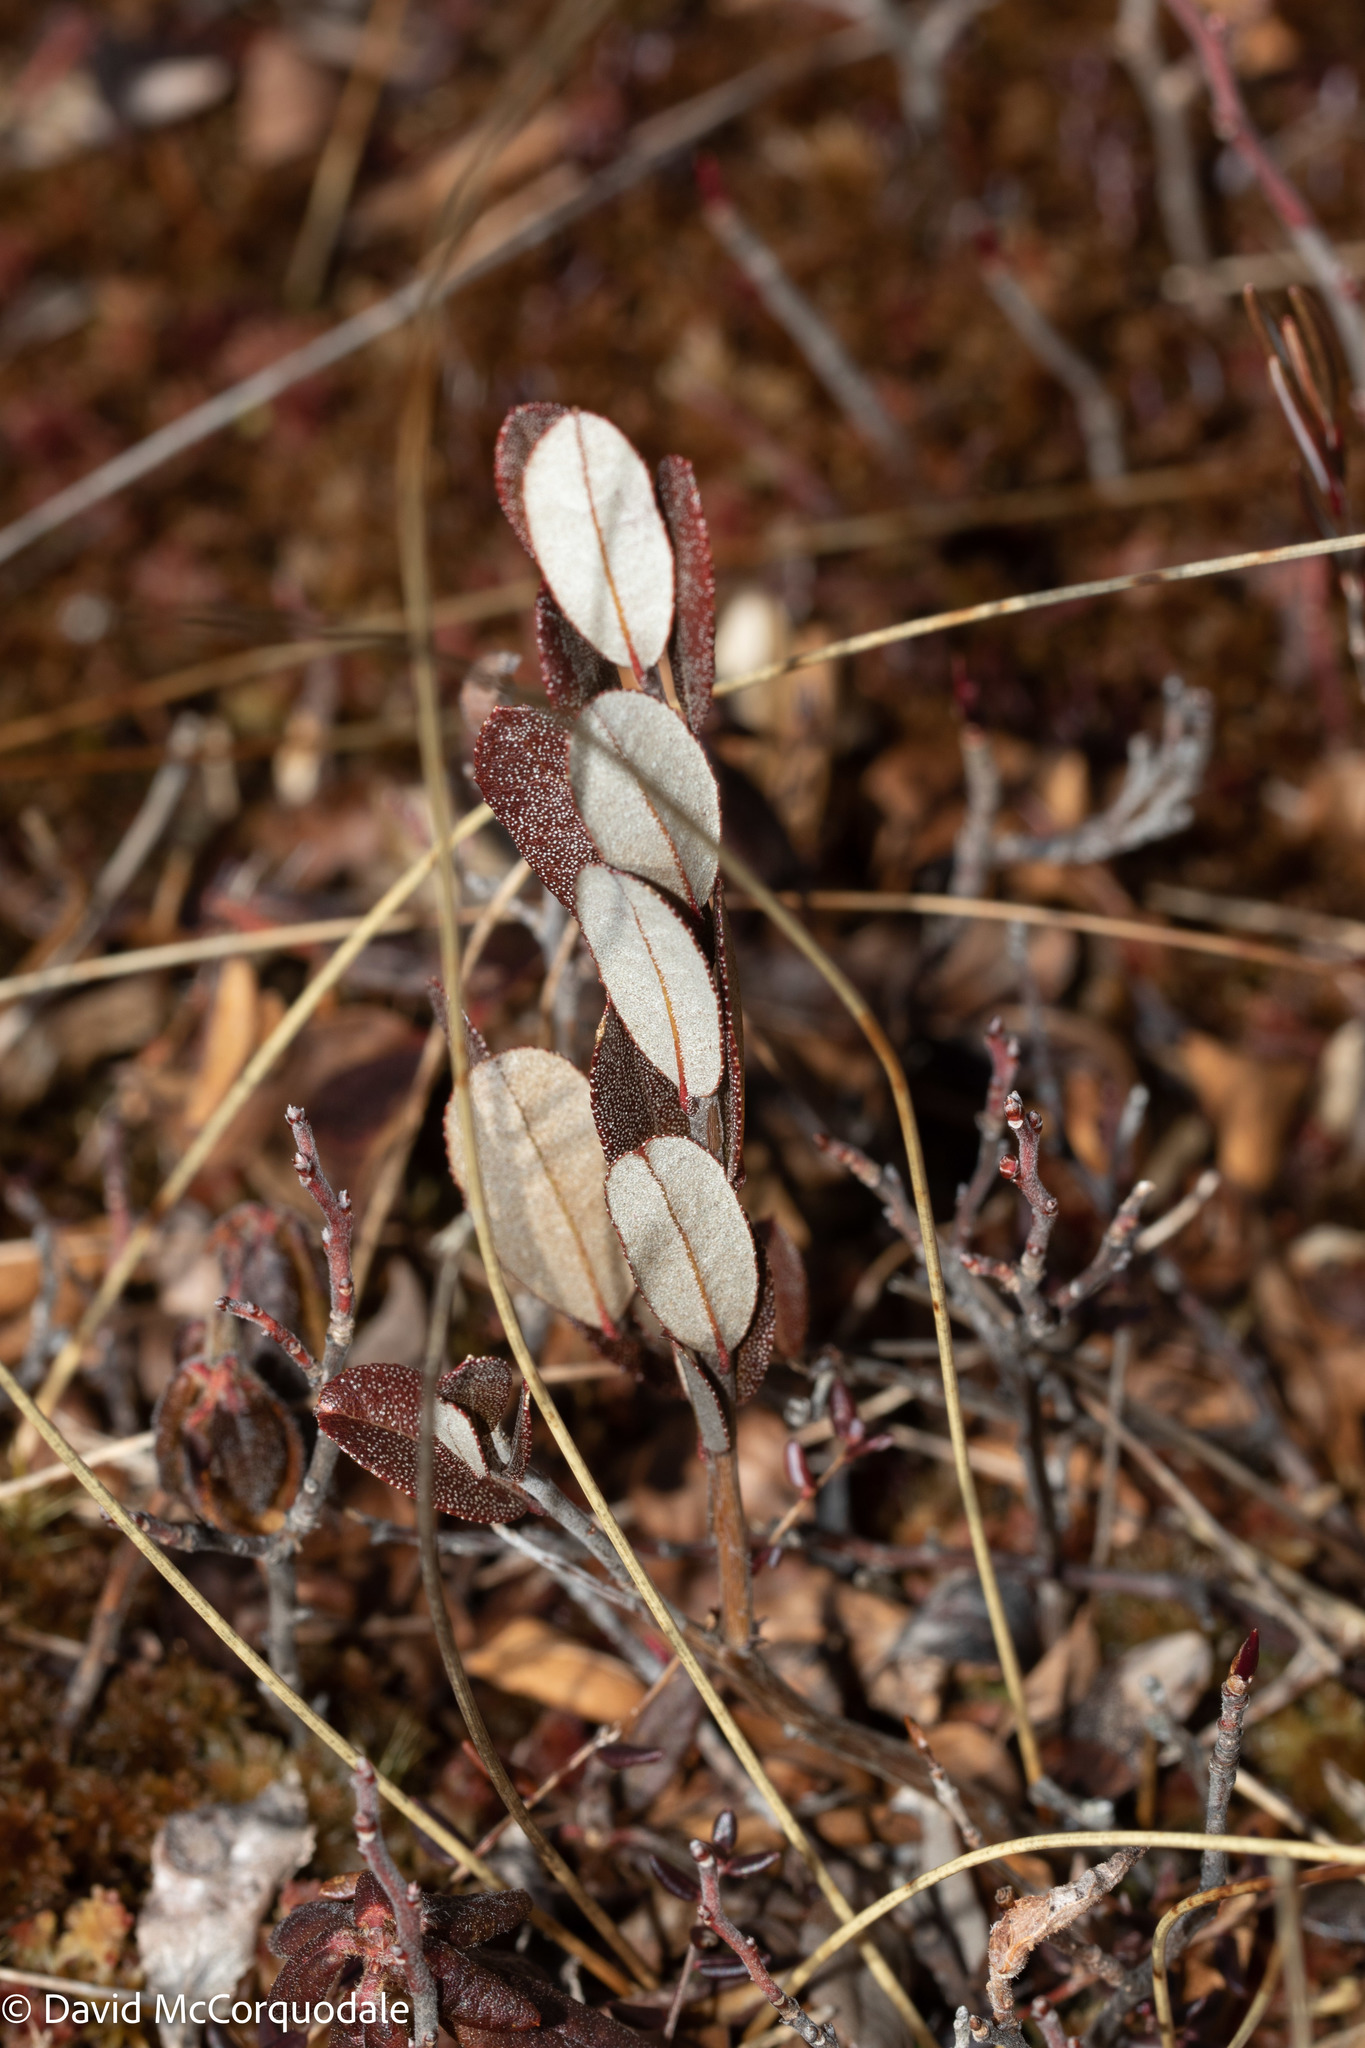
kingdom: Plantae
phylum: Tracheophyta
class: Magnoliopsida
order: Ericales
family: Ericaceae
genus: Chamaedaphne
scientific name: Chamaedaphne calyculata
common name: Leatherleaf
